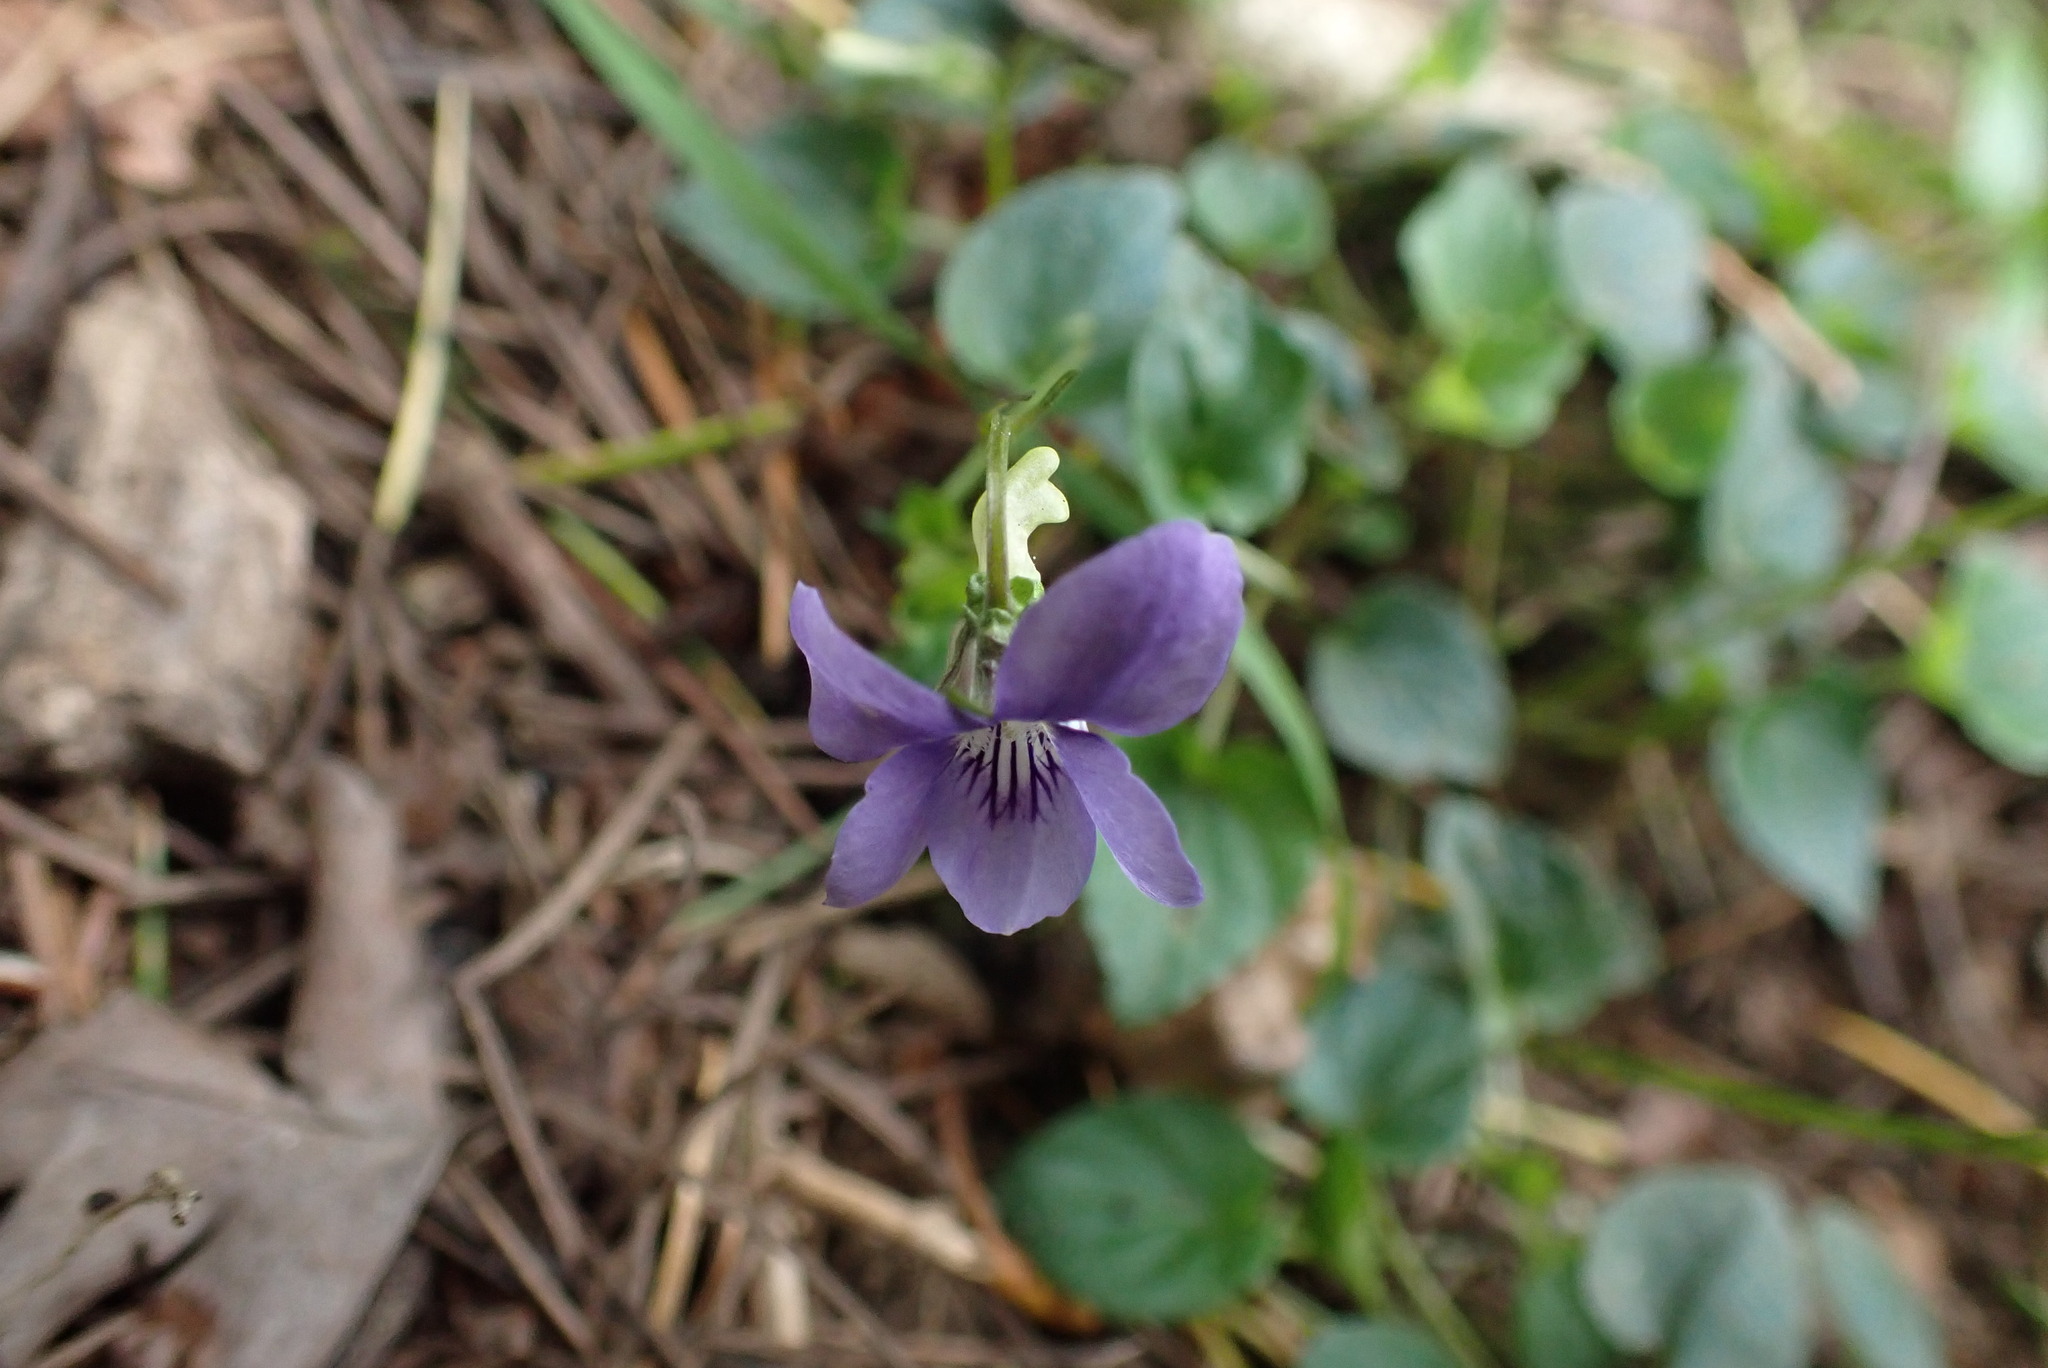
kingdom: Plantae
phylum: Tracheophyta
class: Magnoliopsida
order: Malpighiales
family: Violaceae
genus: Viola
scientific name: Viola riviniana
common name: Common dog-violet
